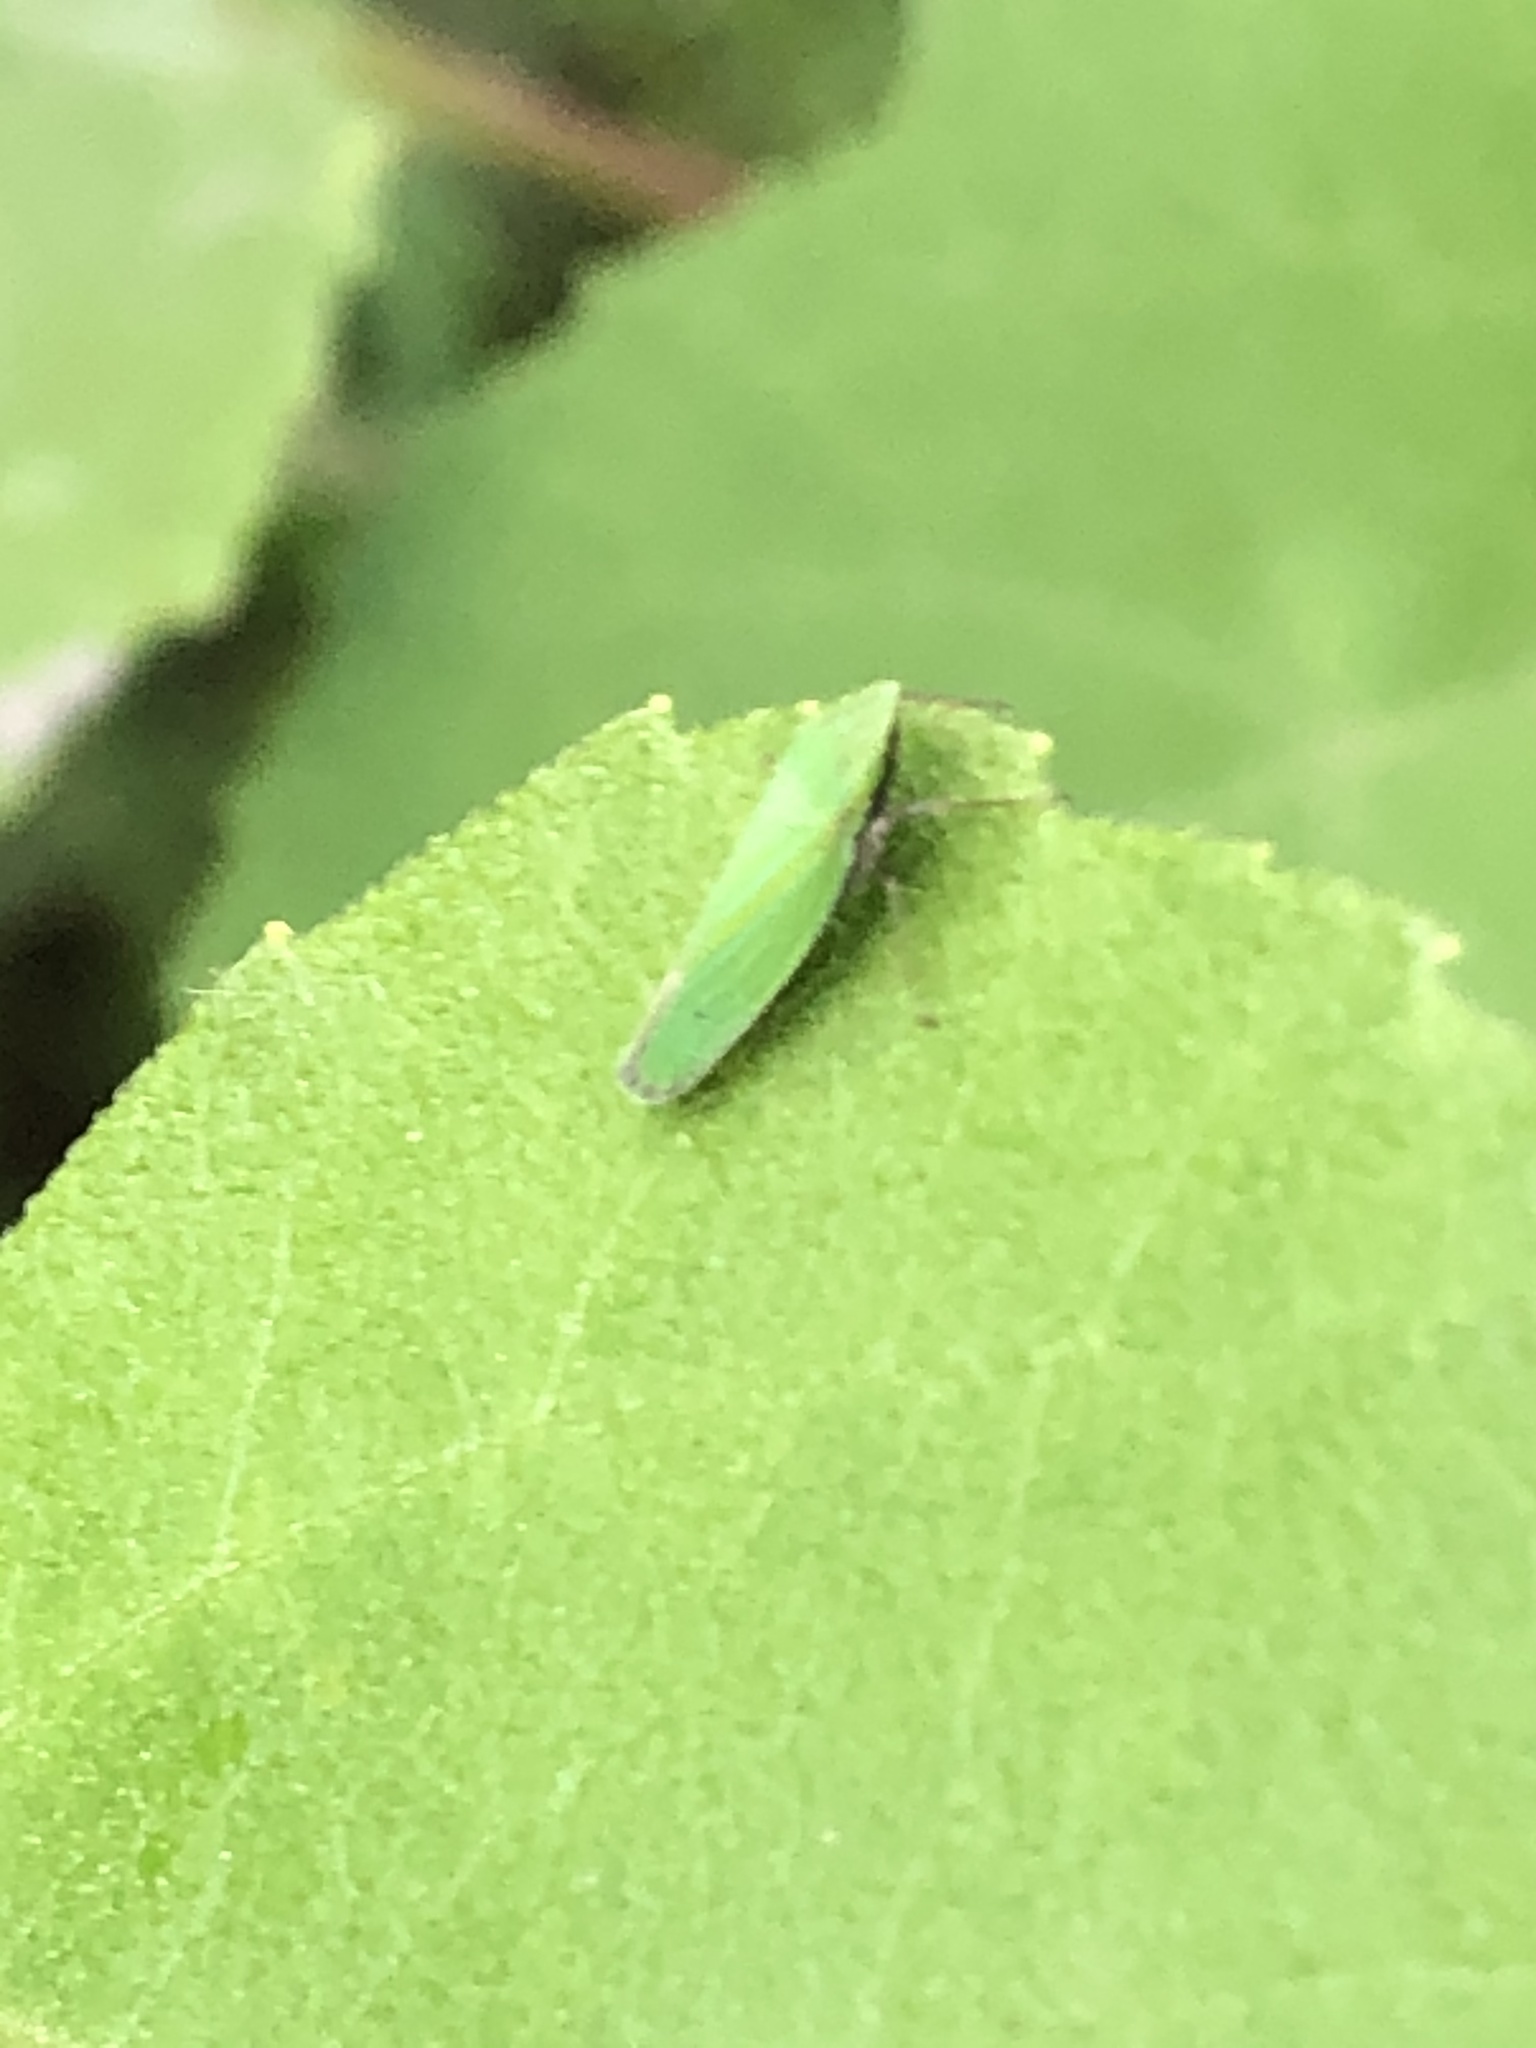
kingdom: Animalia
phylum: Arthropoda
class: Insecta
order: Hemiptera
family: Cicadellidae
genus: Draeculacephala
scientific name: Draeculacephala robinsoni
